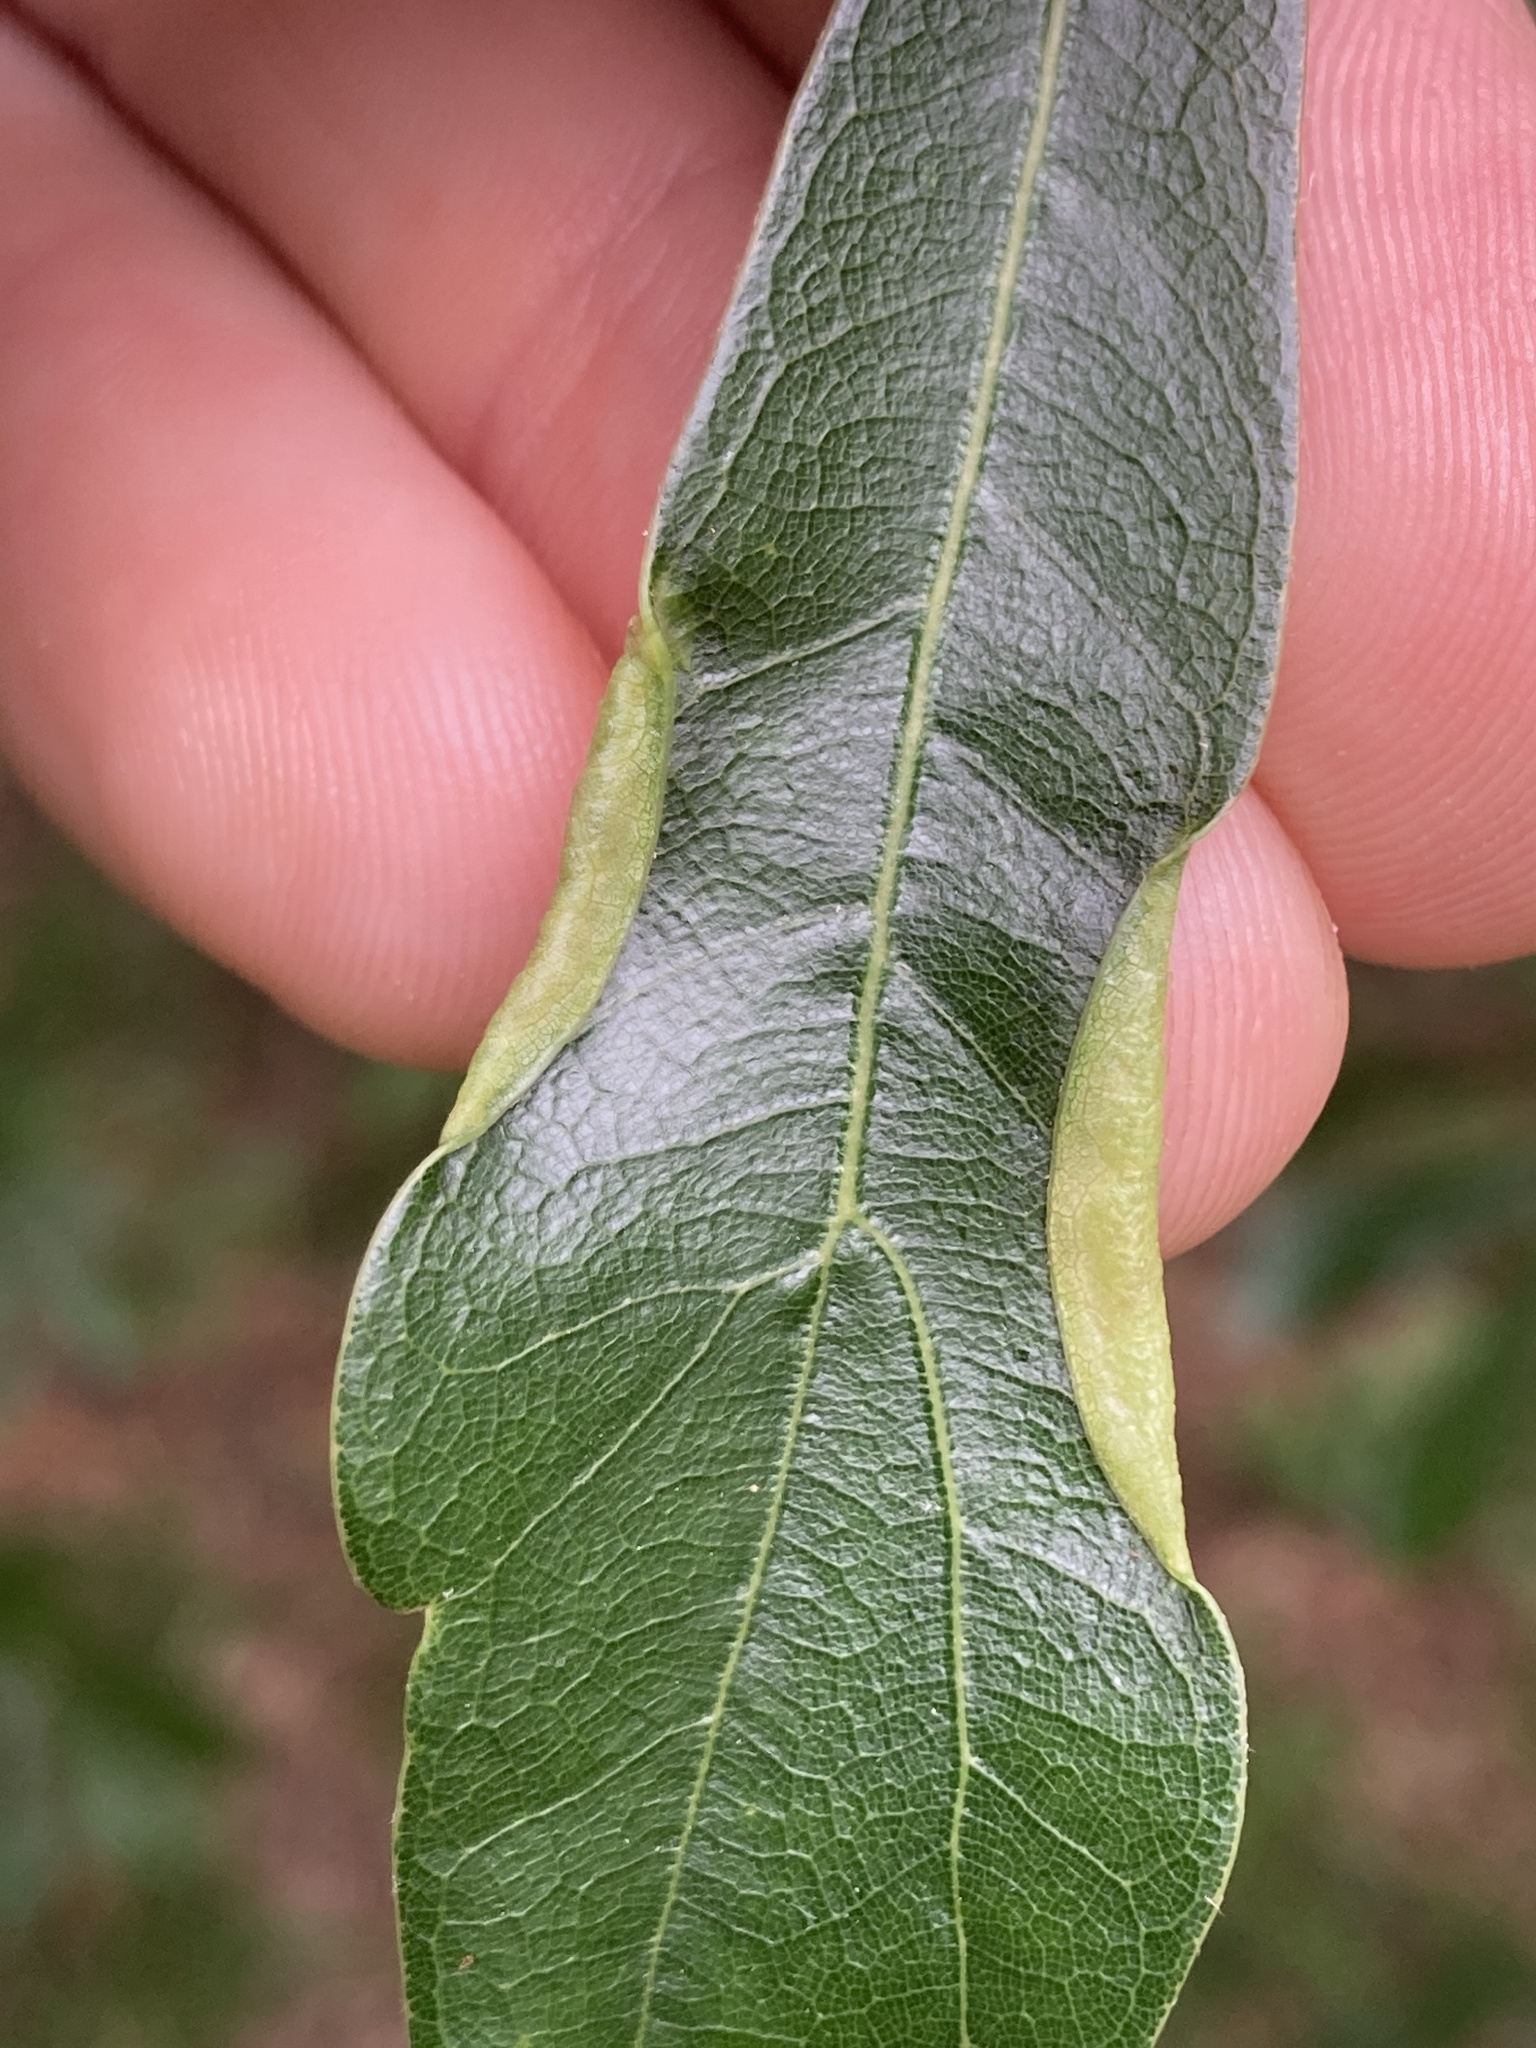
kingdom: Animalia
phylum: Arthropoda
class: Insecta
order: Diptera
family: Cecidomyiidae
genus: Macrodiplosis
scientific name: Macrodiplosis erubescens
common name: Marginal leaf fold gall midge
